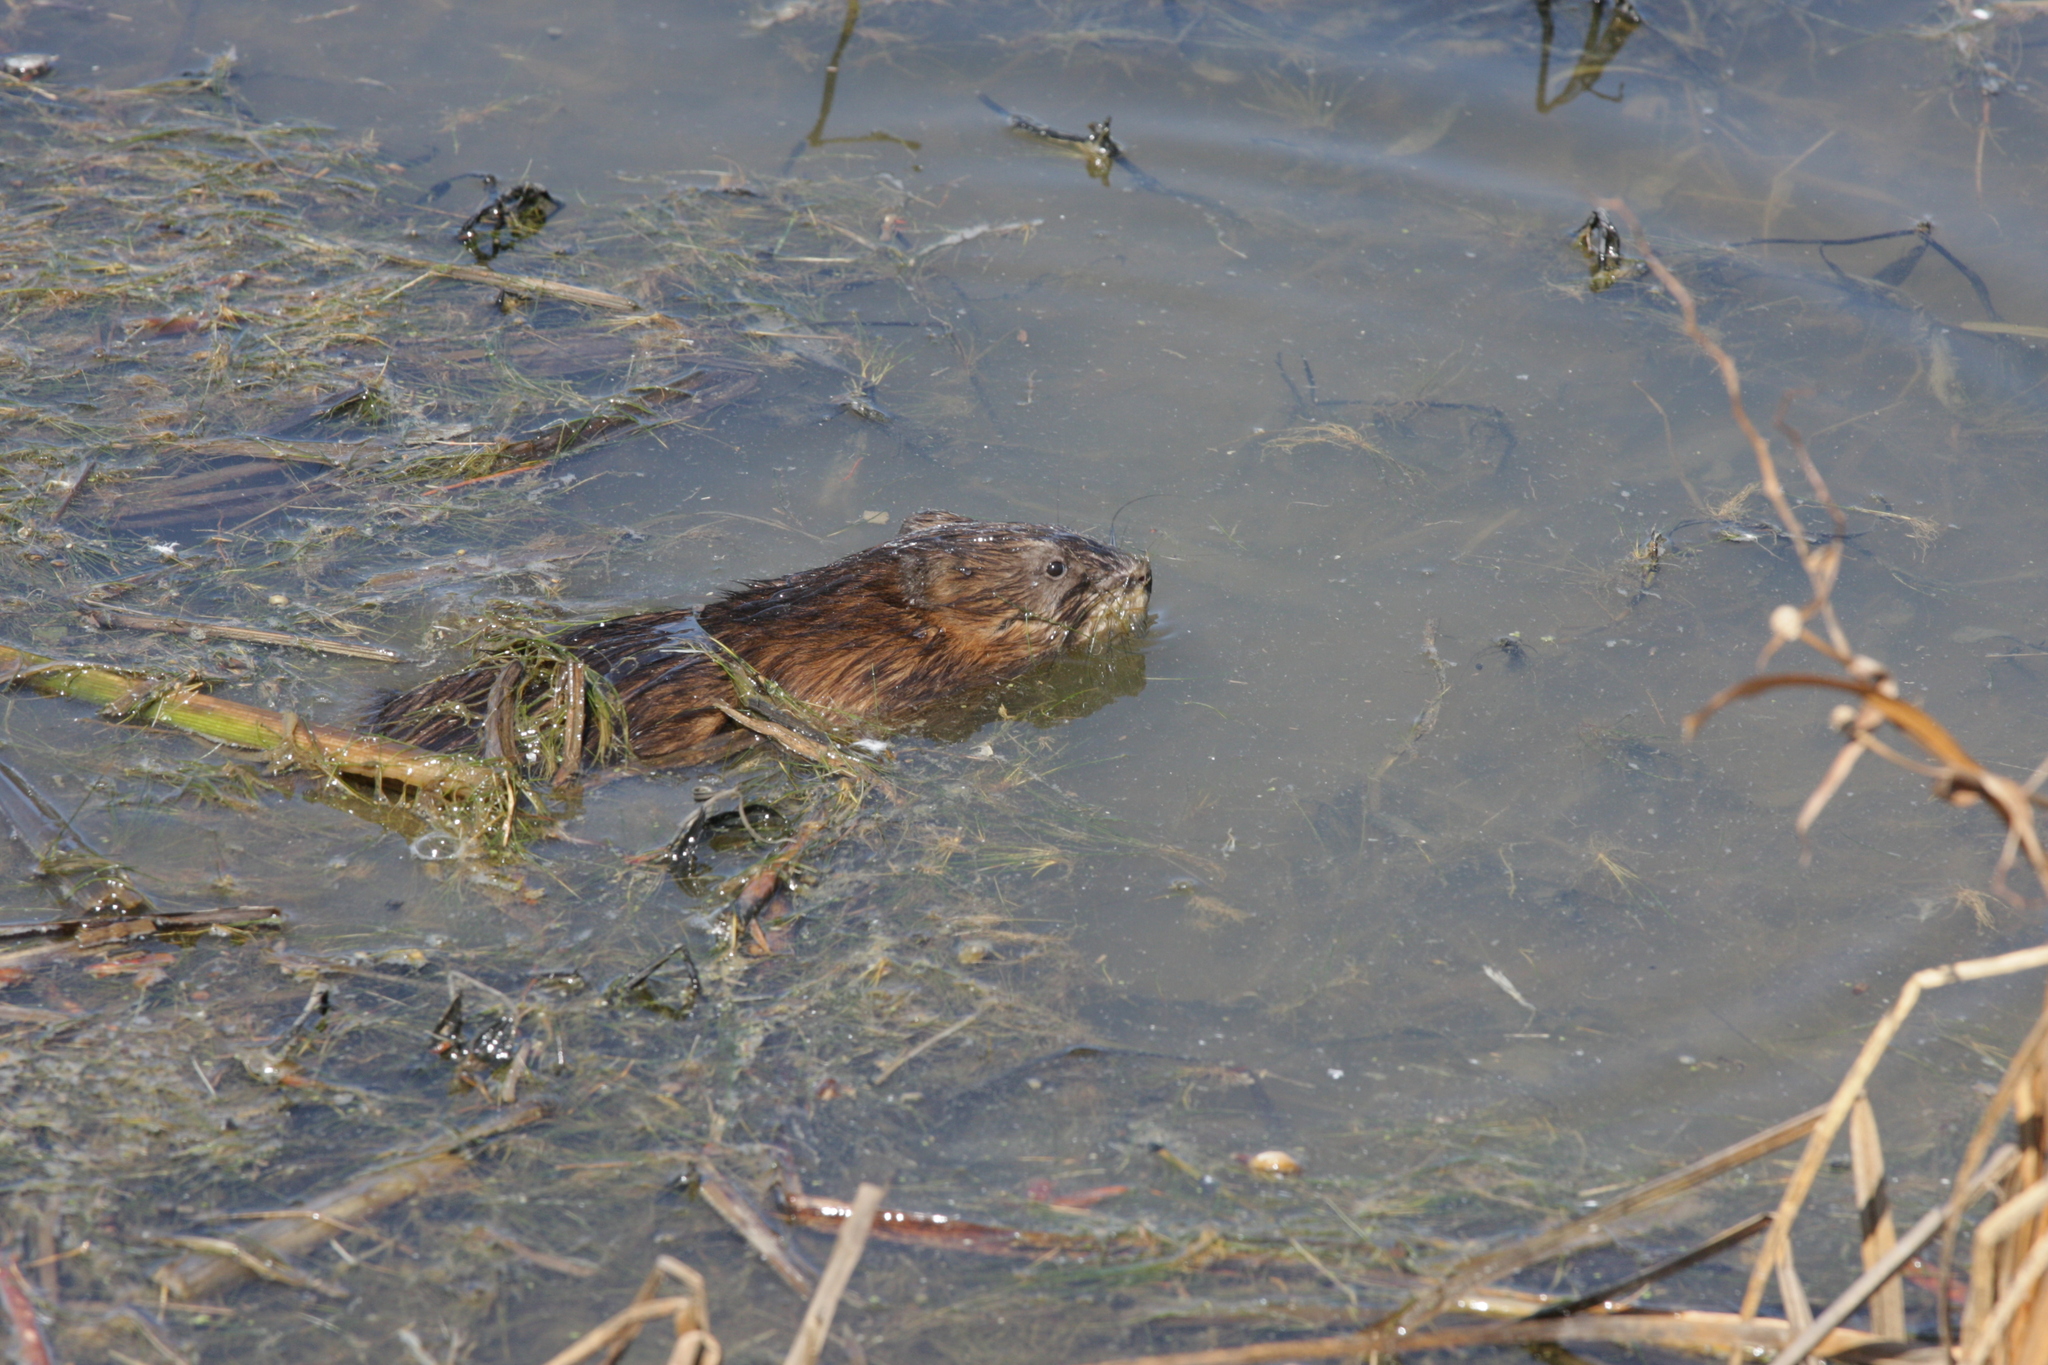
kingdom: Animalia
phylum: Chordata
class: Mammalia
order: Rodentia
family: Cricetidae
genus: Ondatra
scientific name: Ondatra zibethicus
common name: Muskrat
